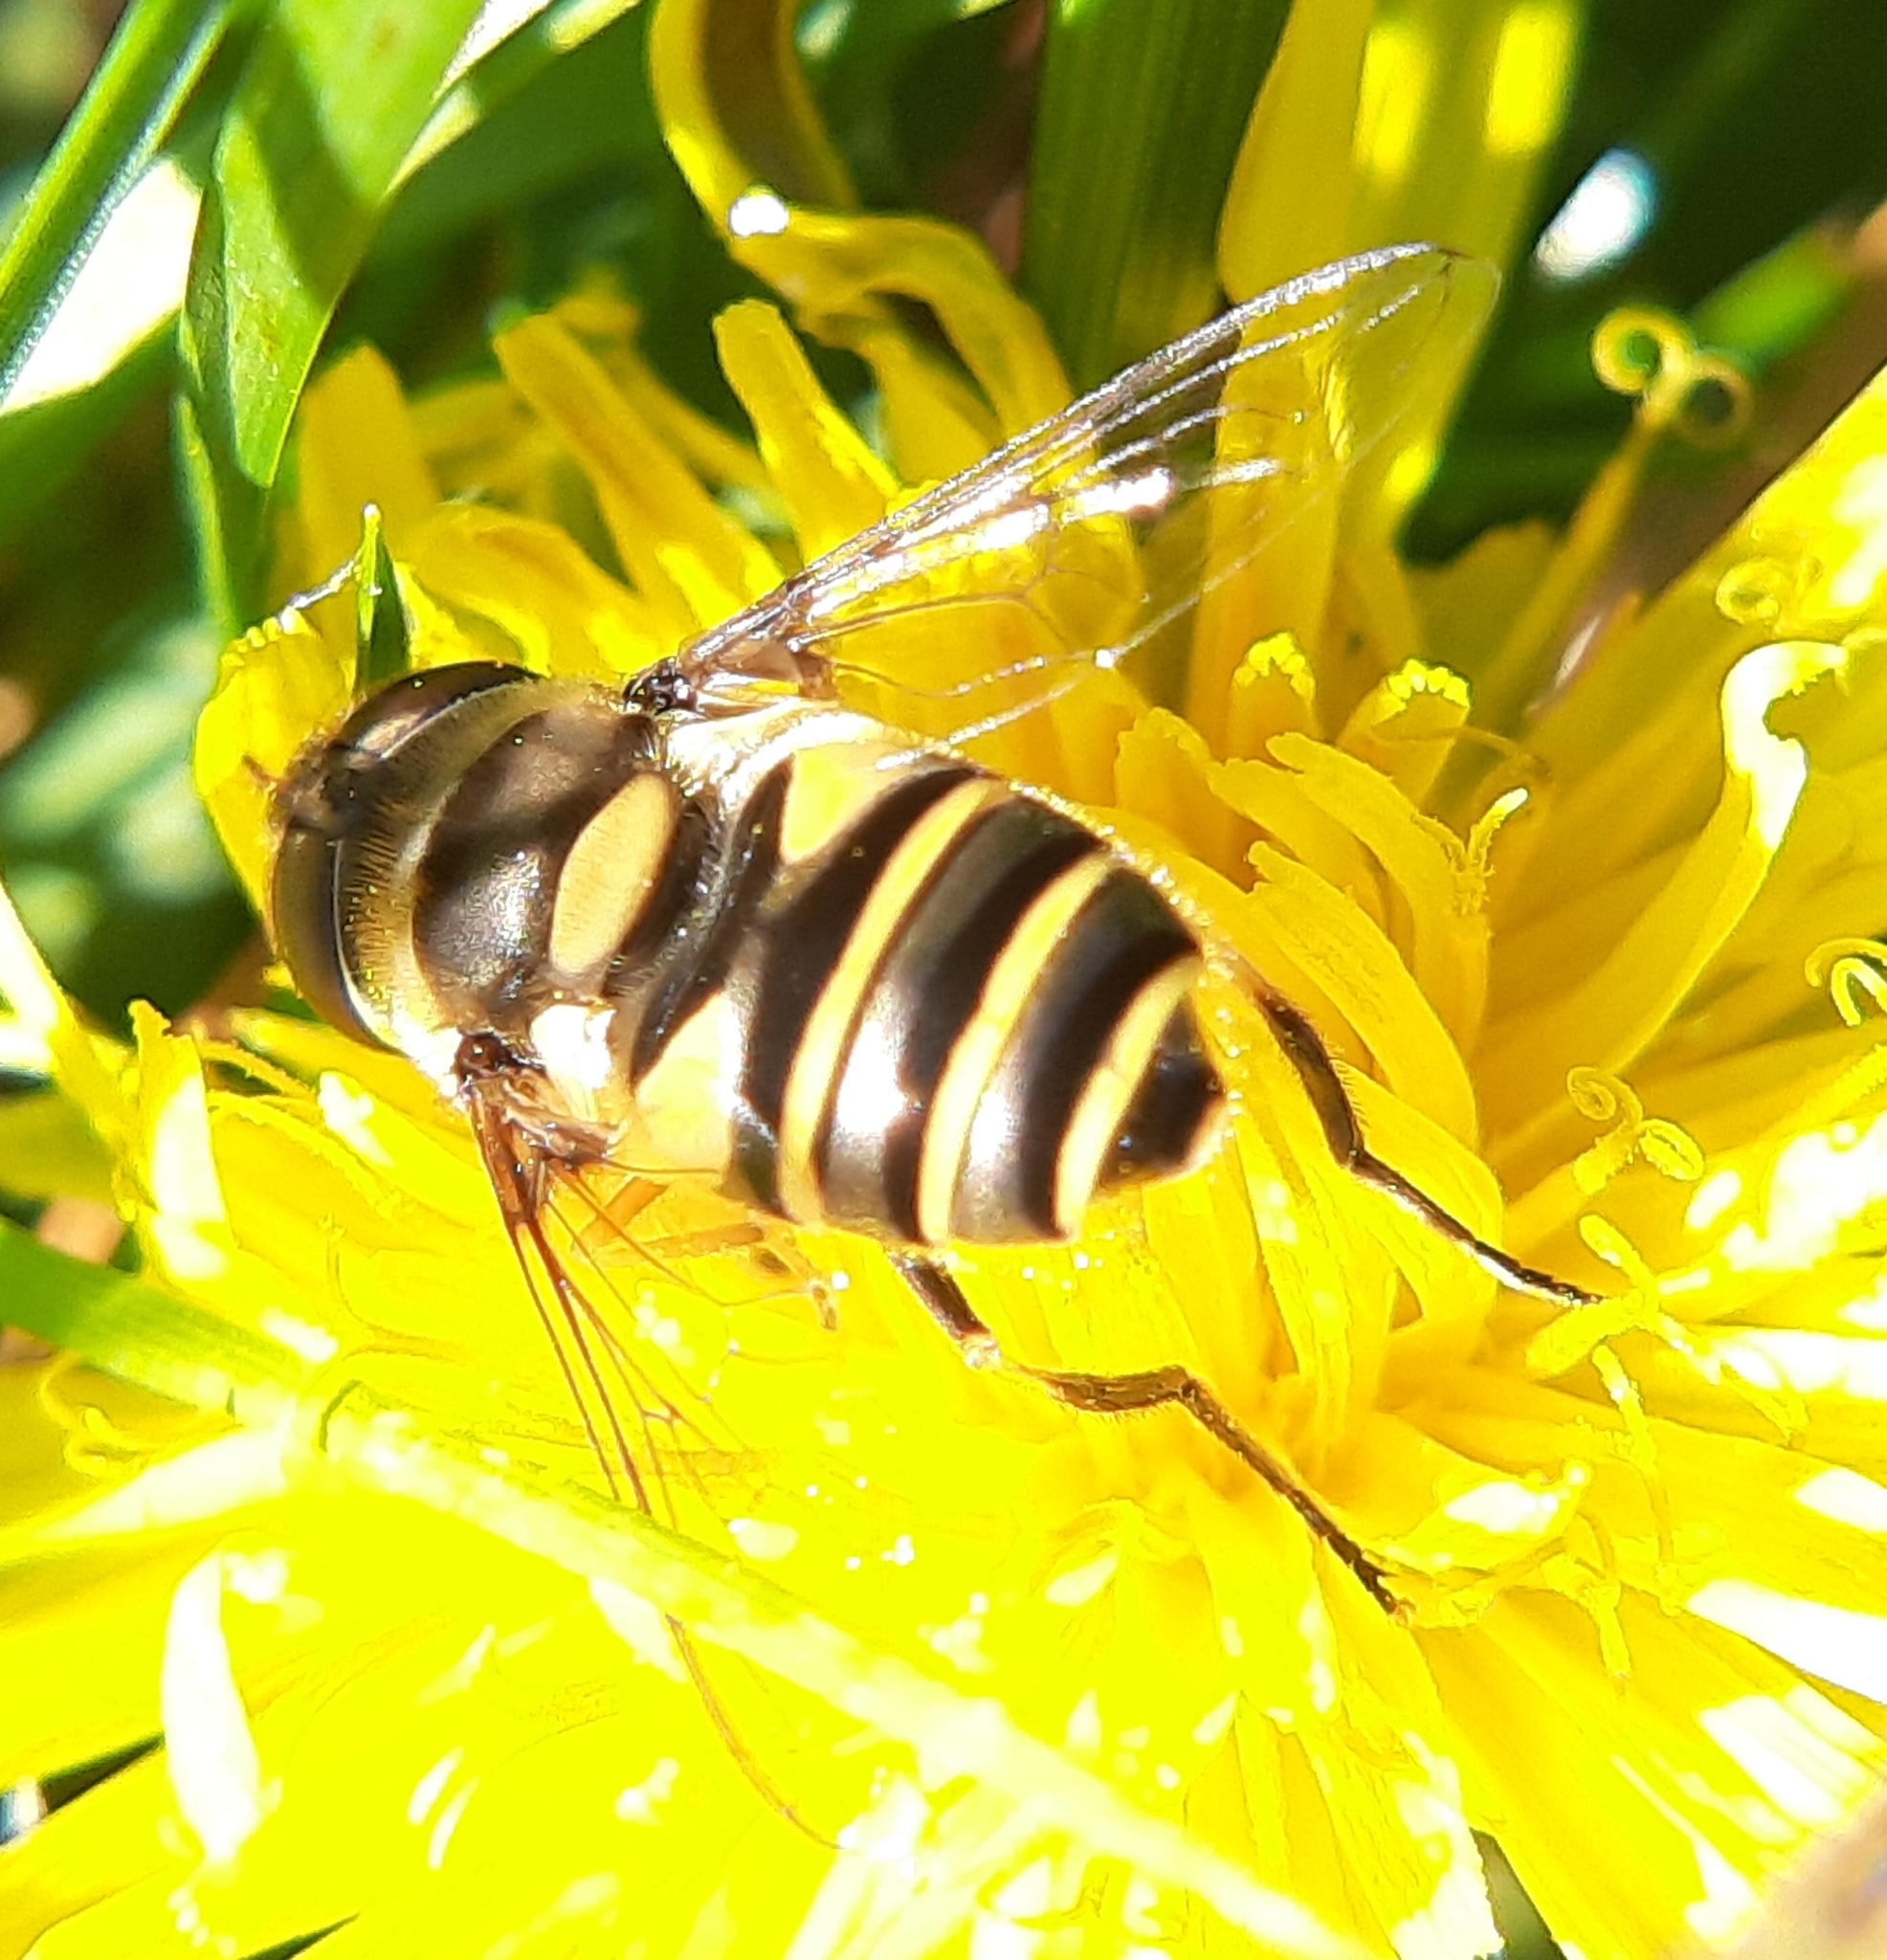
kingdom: Animalia
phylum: Arthropoda
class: Insecta
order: Diptera
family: Syrphidae
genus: Eristalis
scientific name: Eristalis transversa
